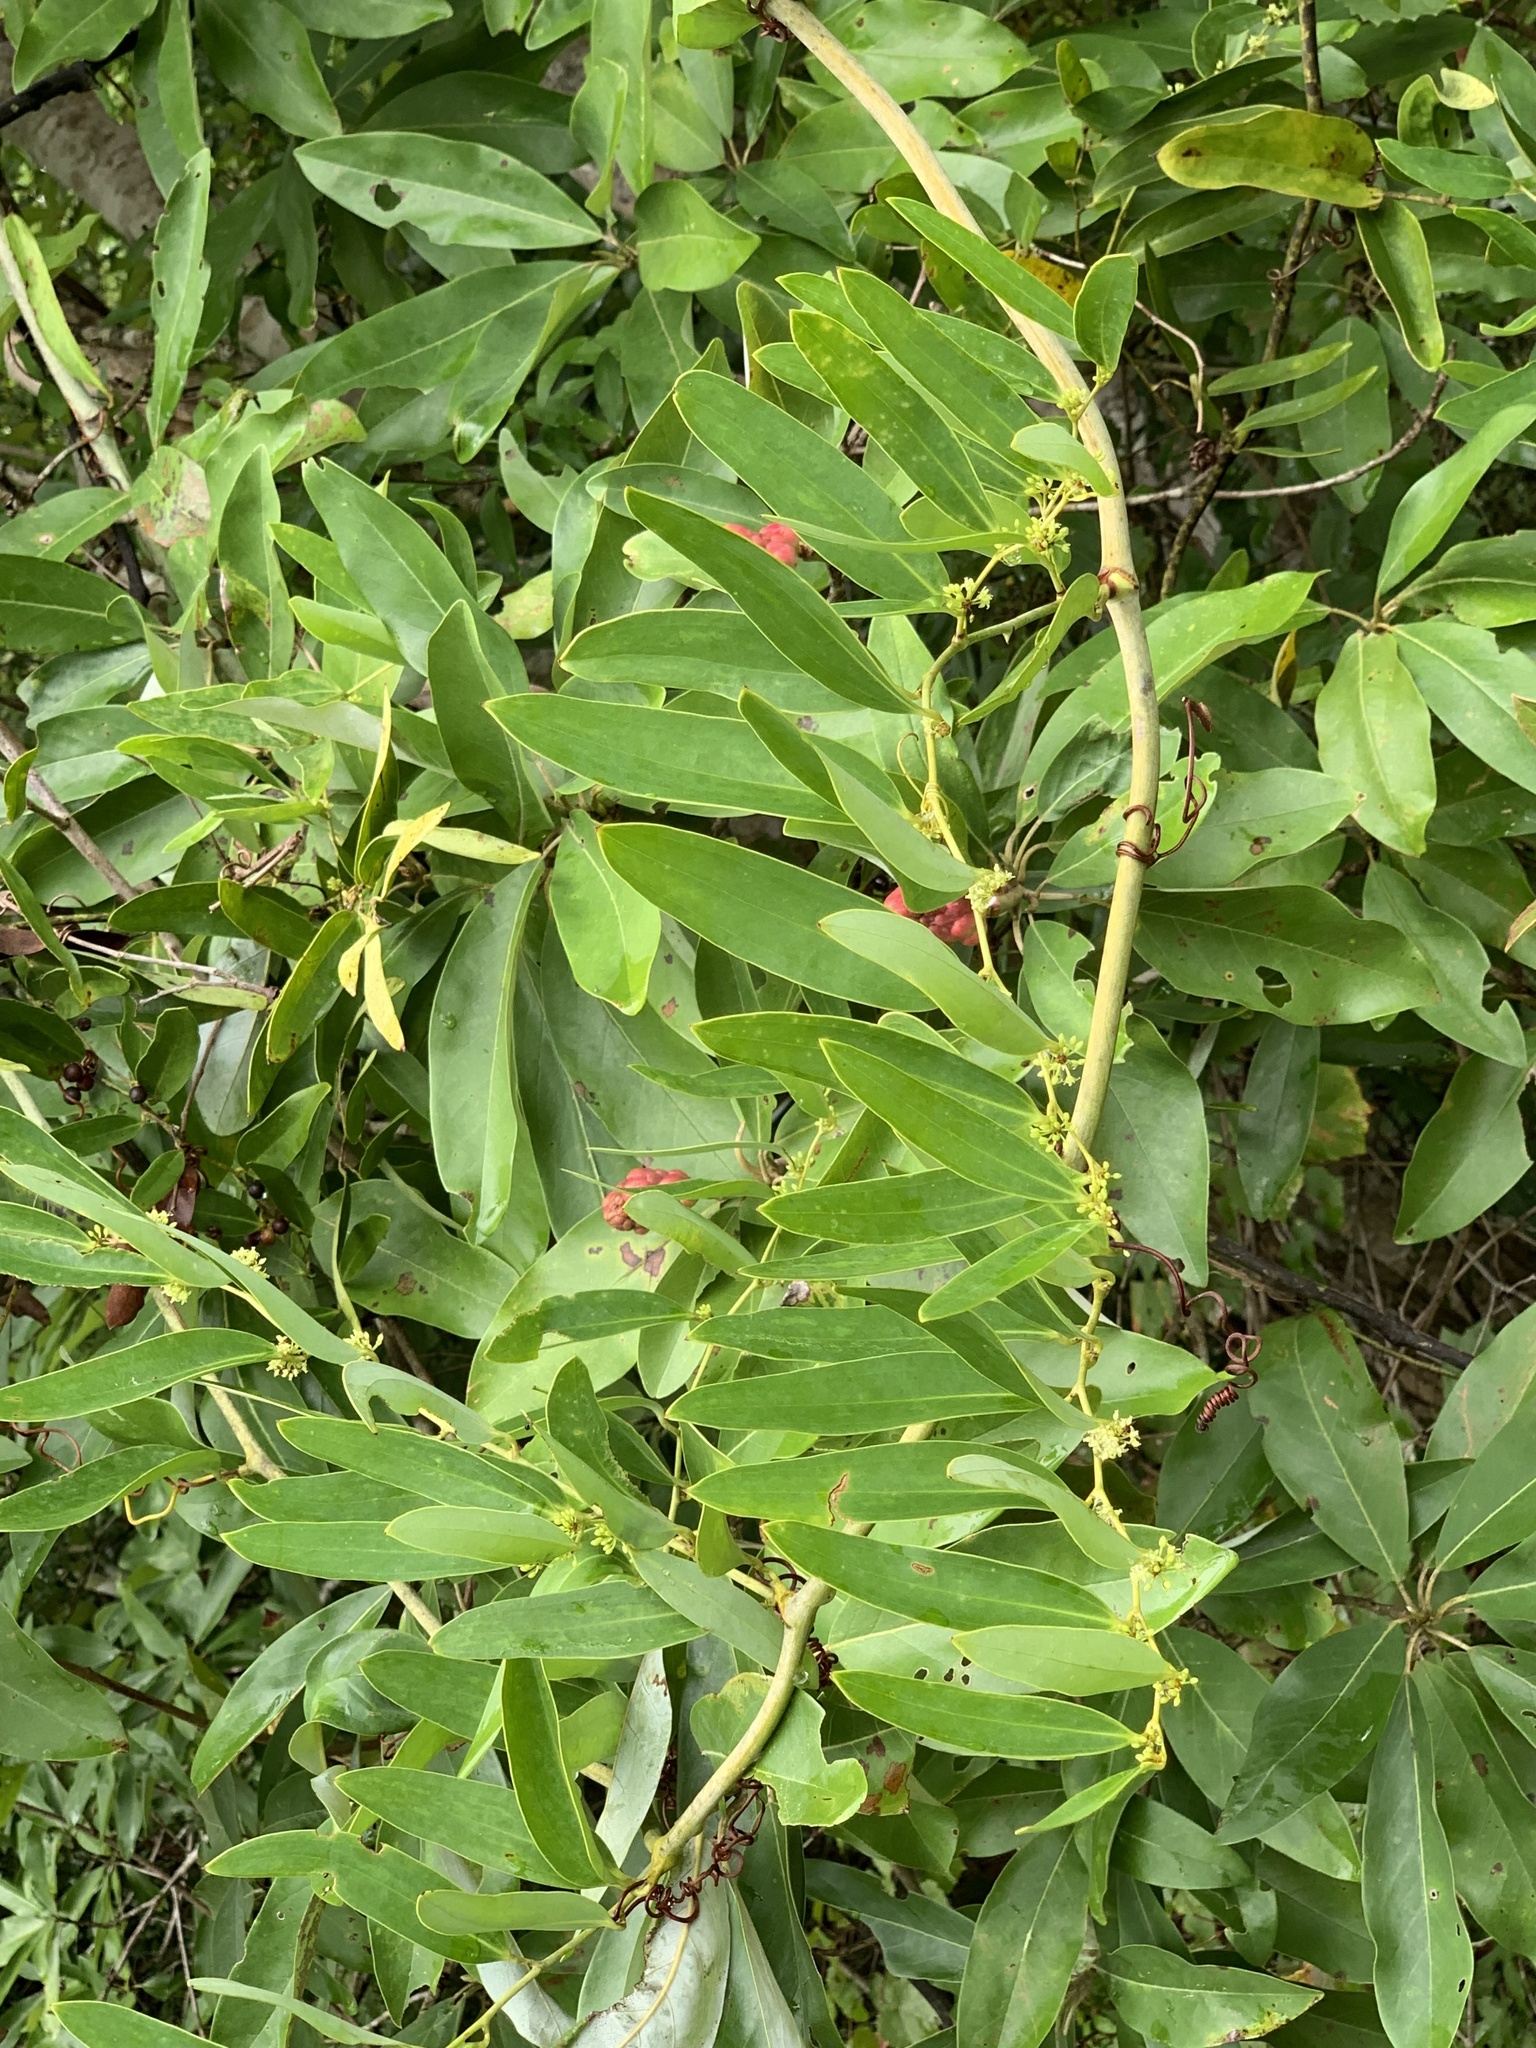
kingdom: Plantae
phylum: Tracheophyta
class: Liliopsida
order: Liliales
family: Smilacaceae
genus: Smilax
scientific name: Smilax laurifolia
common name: Bamboovine
